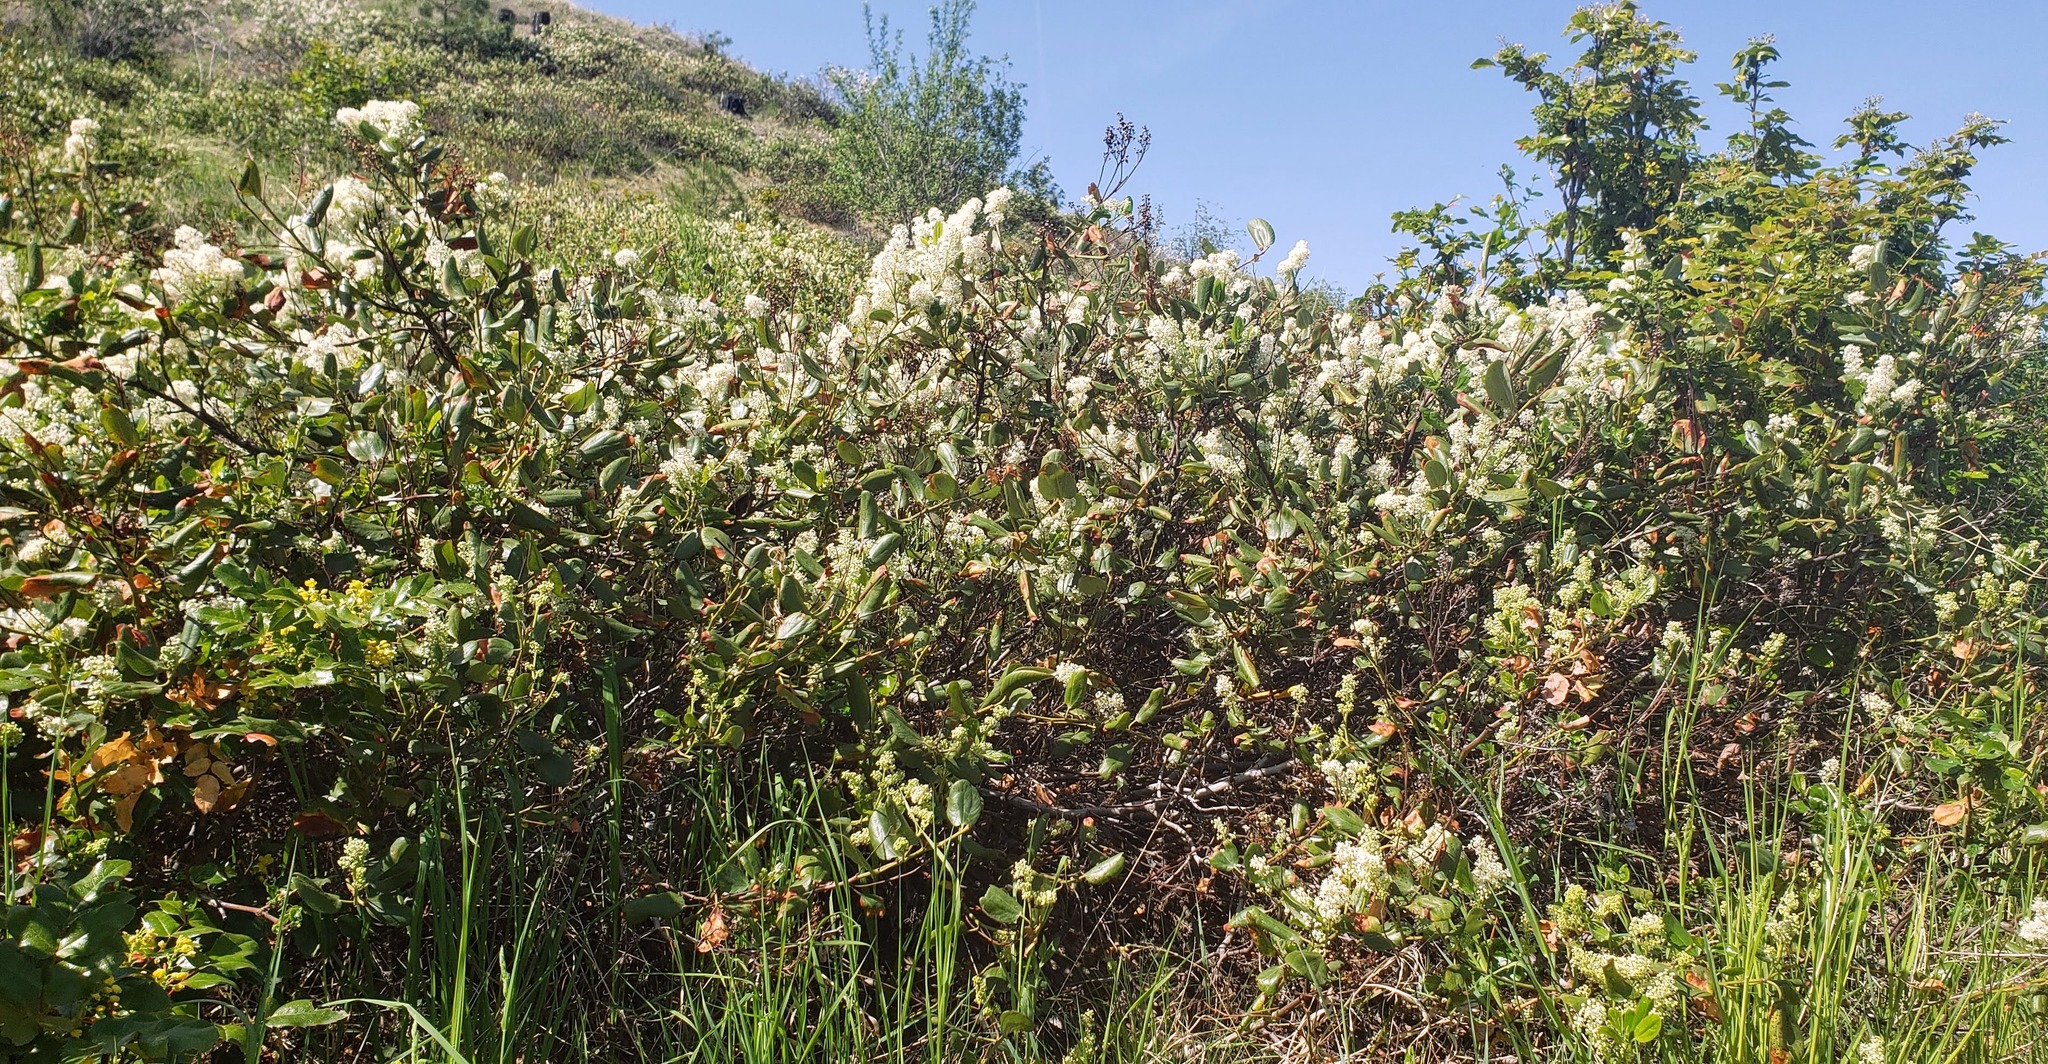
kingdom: Plantae
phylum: Tracheophyta
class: Magnoliopsida
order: Rosales
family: Rhamnaceae
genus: Ceanothus
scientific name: Ceanothus velutinus
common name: Snowbrush
